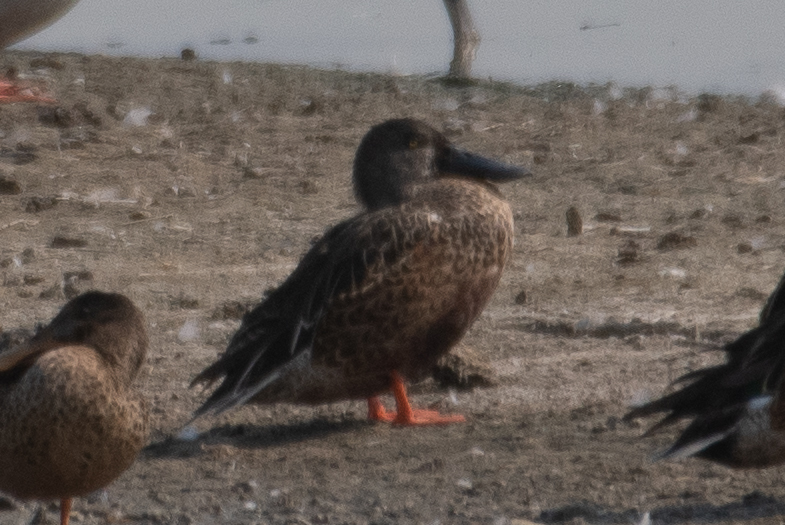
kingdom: Animalia
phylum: Chordata
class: Aves
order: Anseriformes
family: Anatidae
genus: Spatula
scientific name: Spatula clypeata
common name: Northern shoveler
